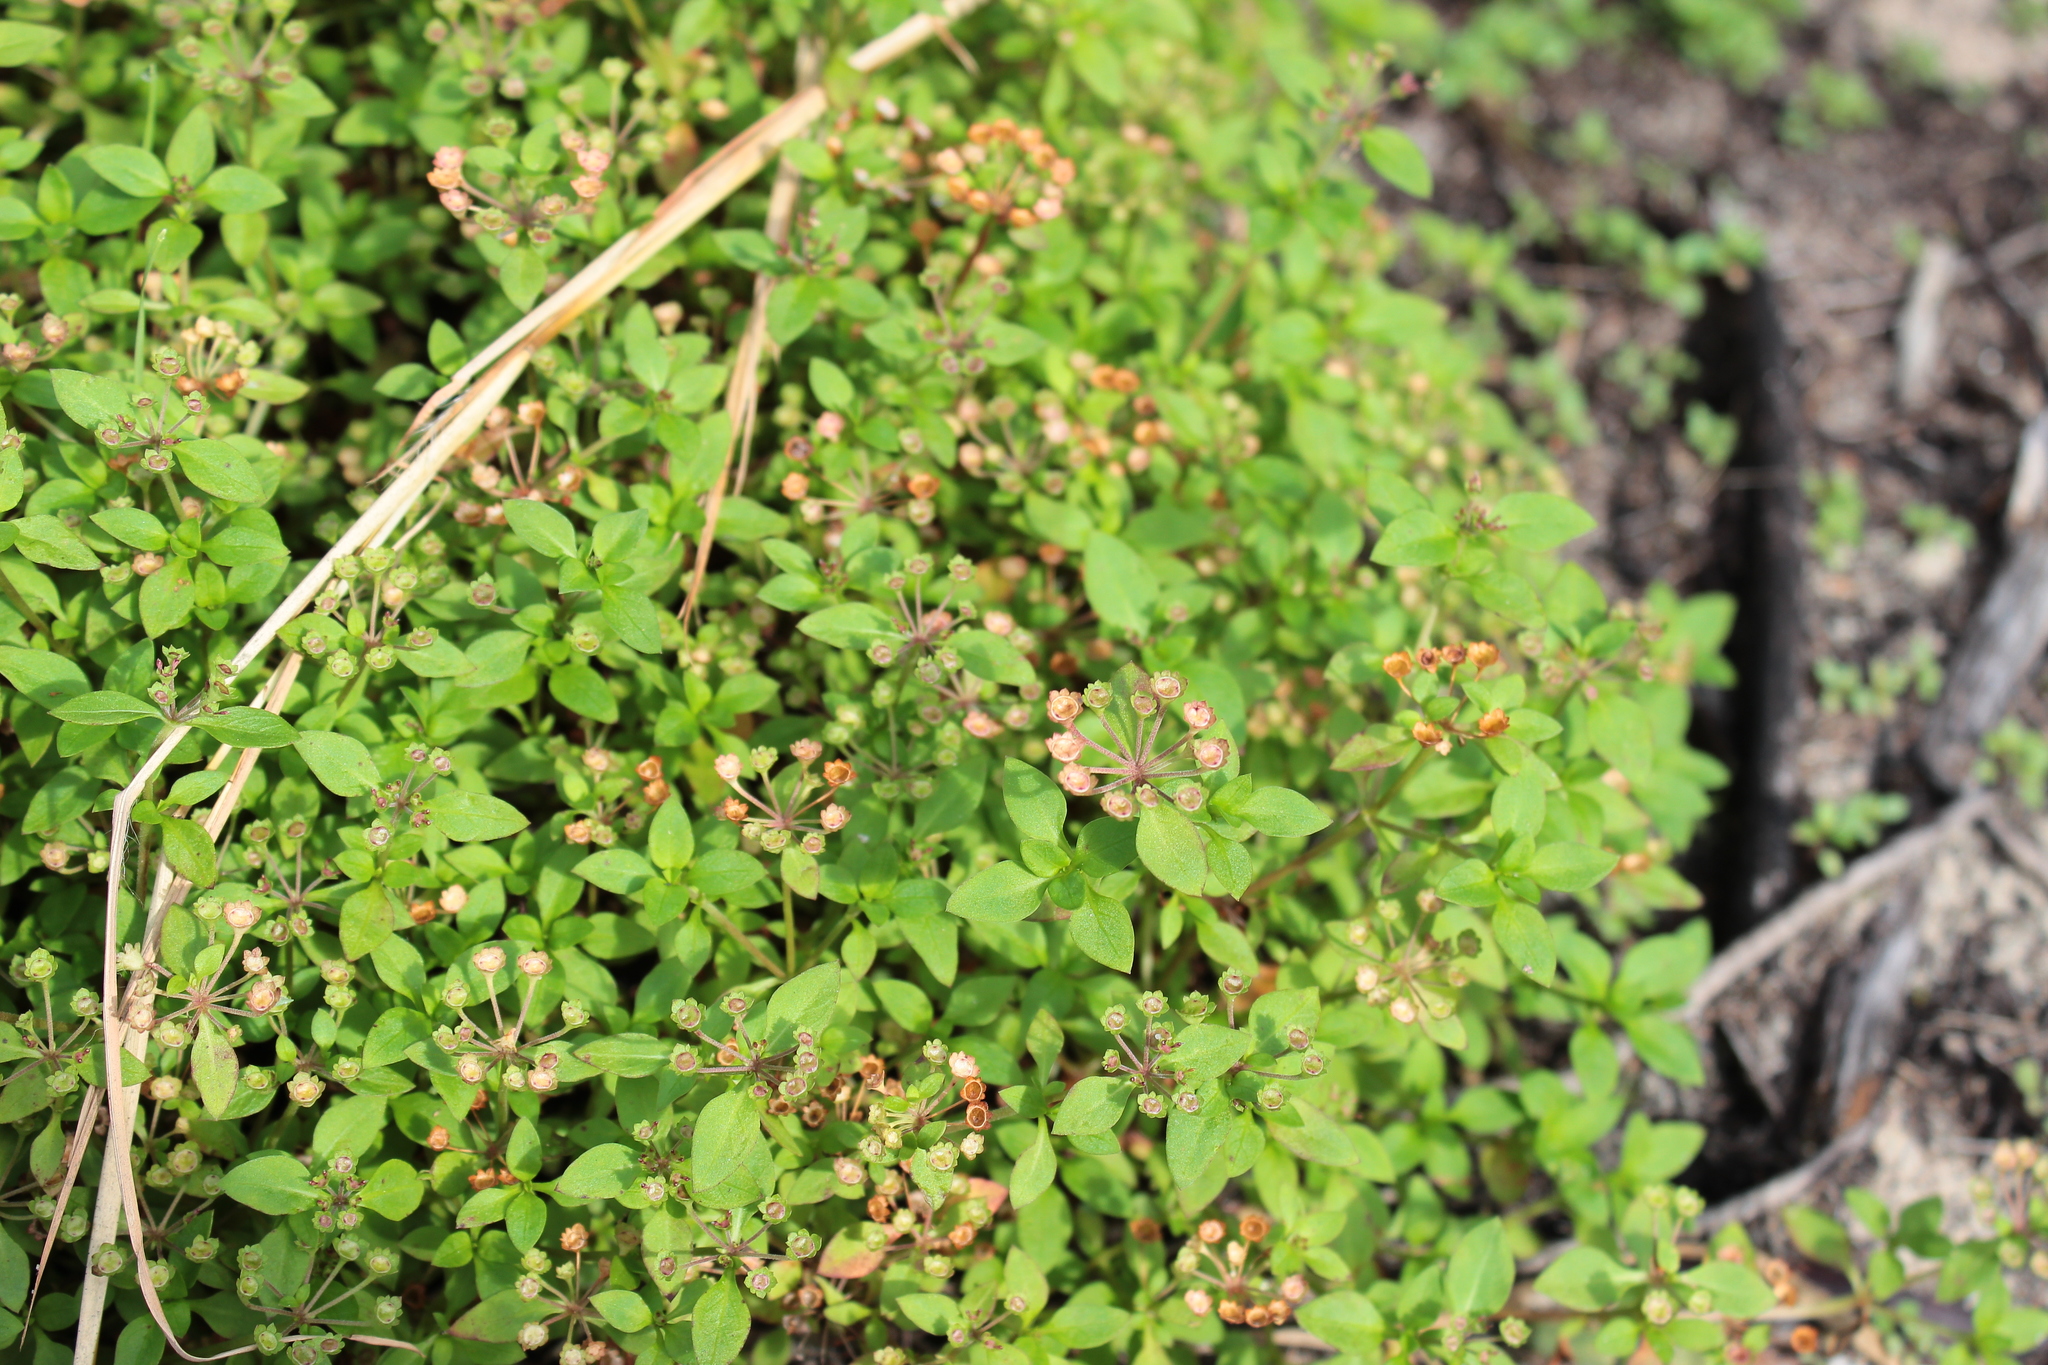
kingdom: Plantae
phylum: Tracheophyta
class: Magnoliopsida
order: Gentianales
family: Rubiaceae
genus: Pomax
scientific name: Pomax umbellata
